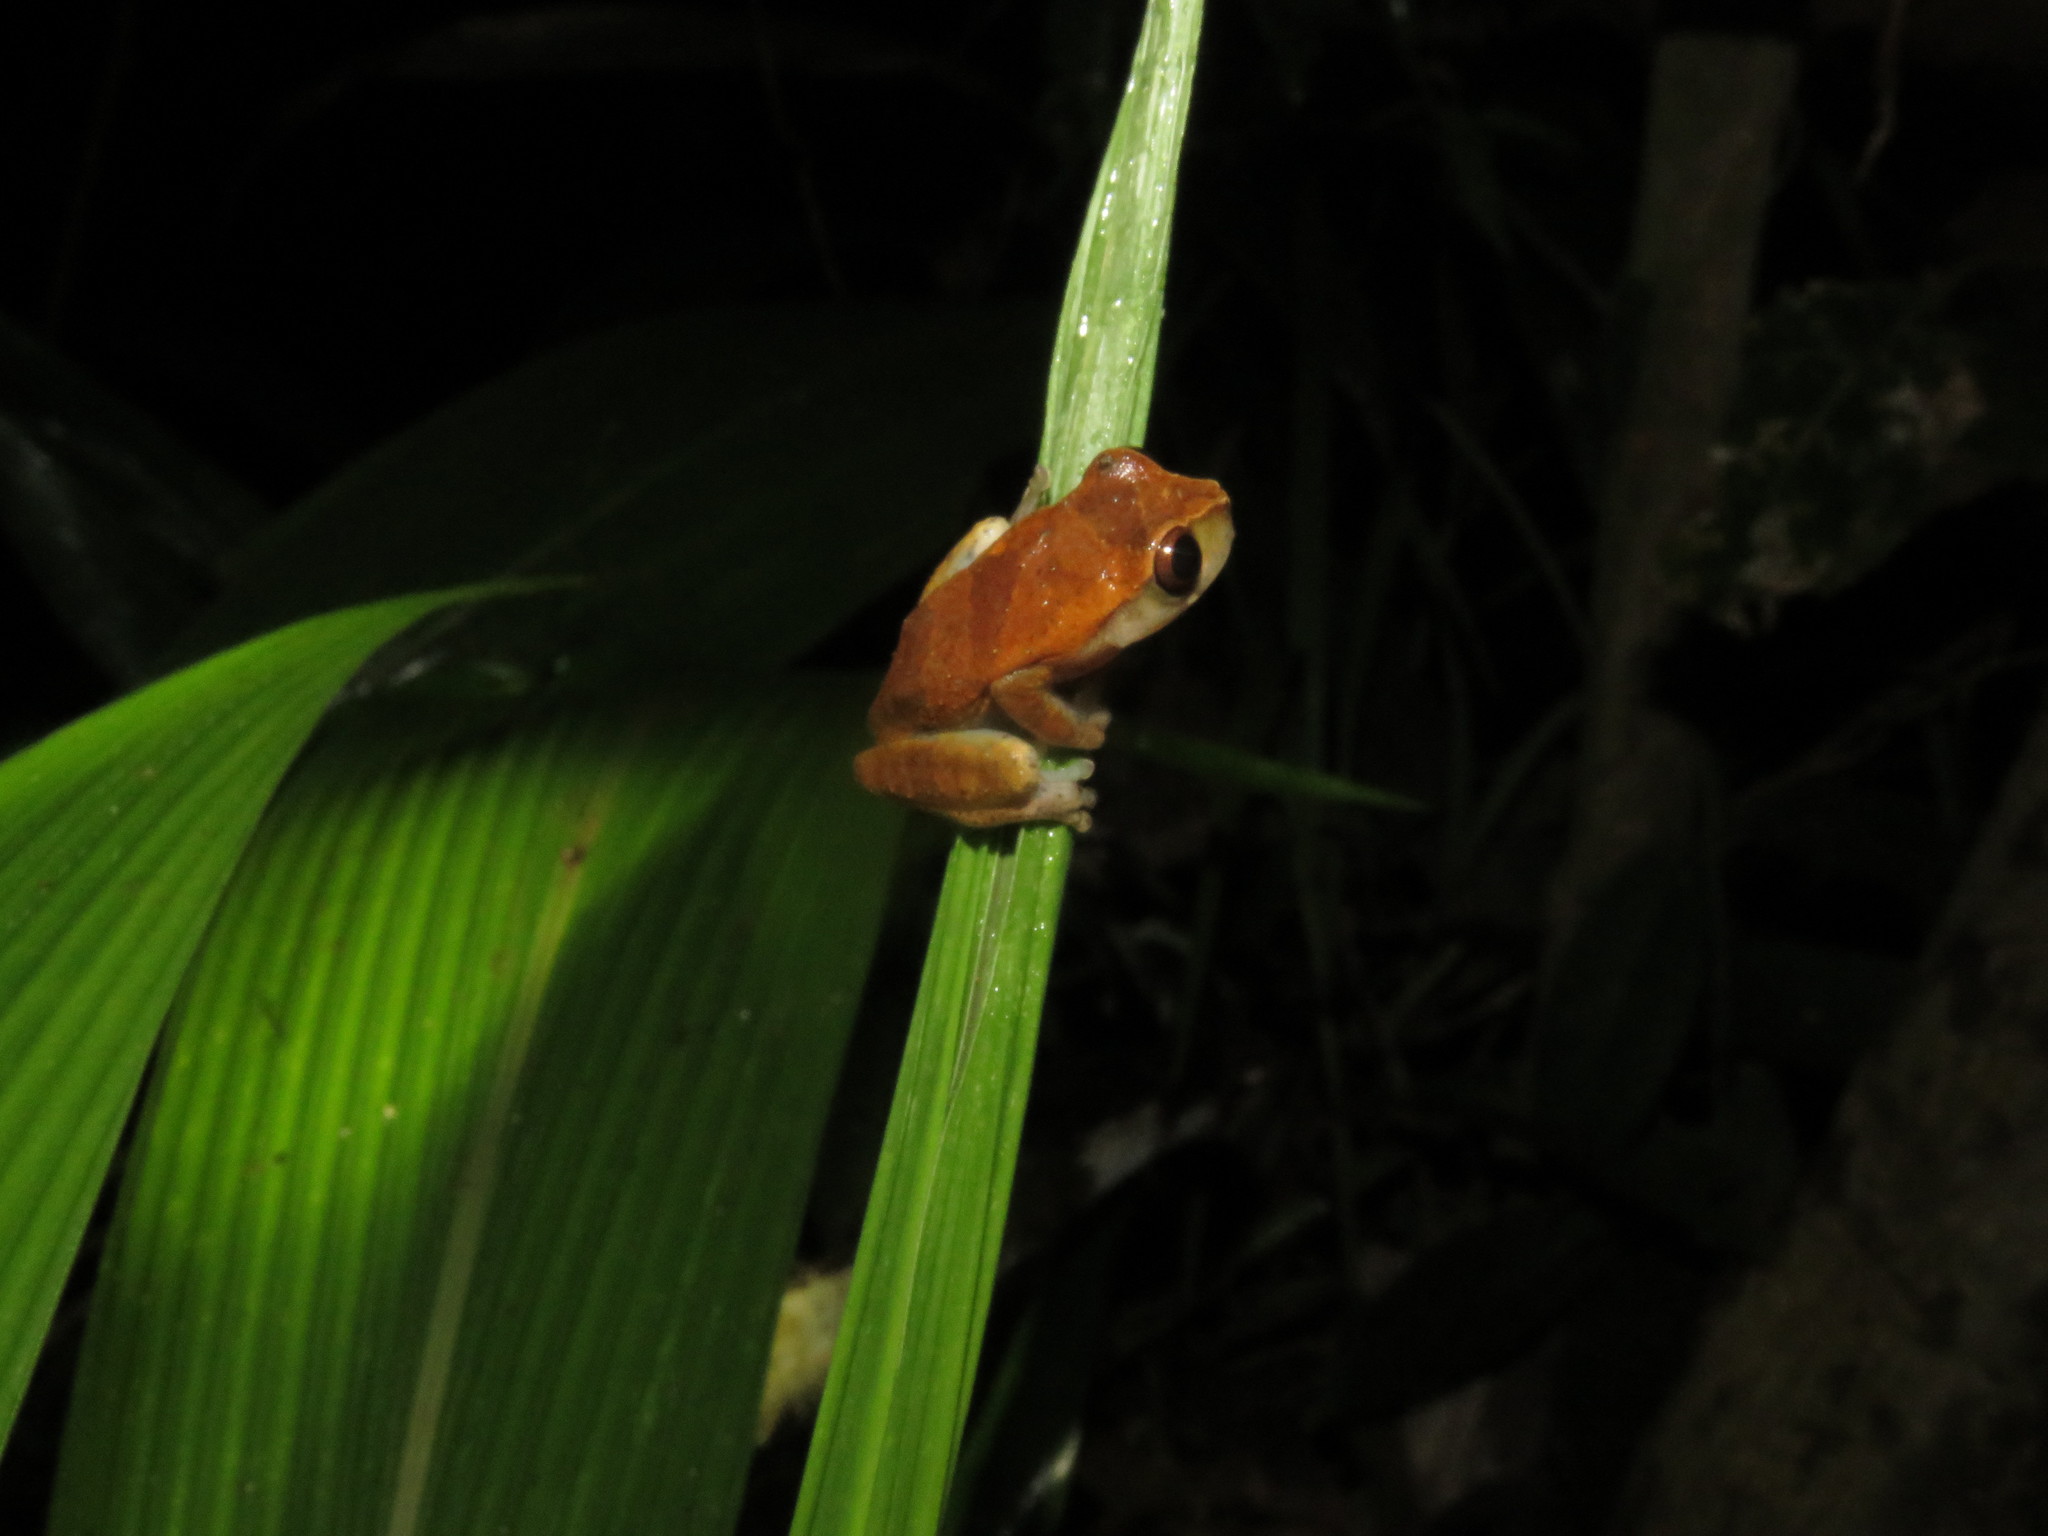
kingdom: Animalia
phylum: Chordata
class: Amphibia
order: Anura
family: Hylidae
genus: Dendropsophus
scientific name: Dendropsophus pauiniensis
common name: Pauini treefrog
